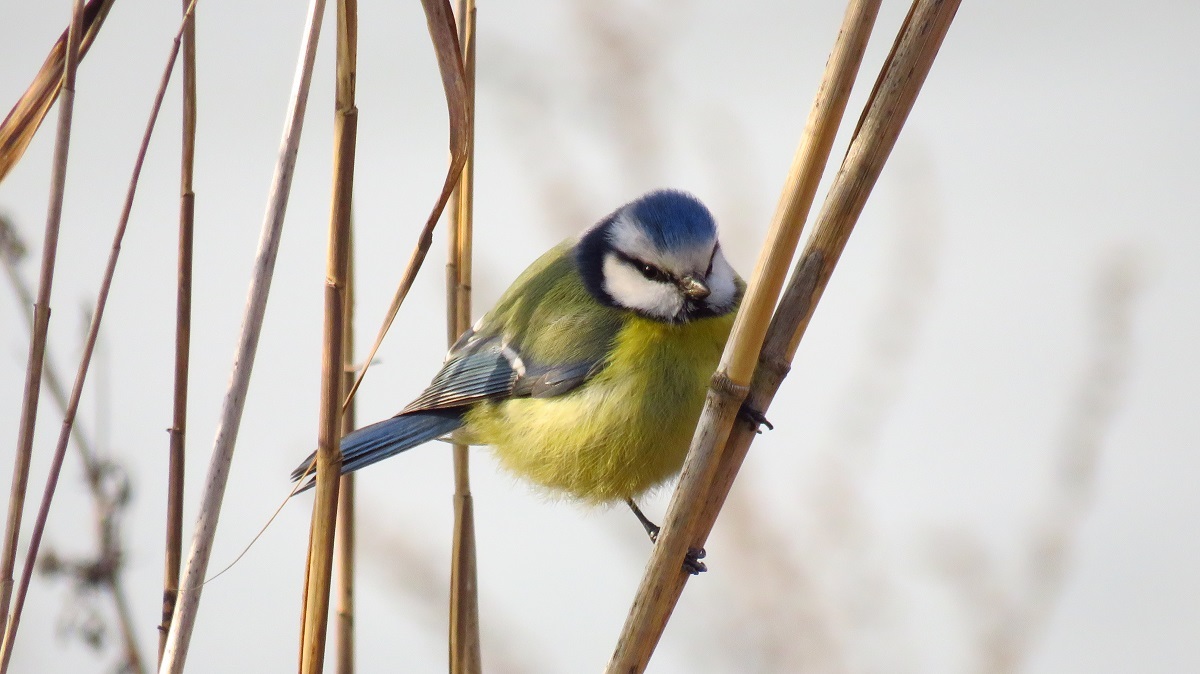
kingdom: Animalia
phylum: Chordata
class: Aves
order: Passeriformes
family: Paridae
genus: Cyanistes
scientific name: Cyanistes caeruleus
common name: Eurasian blue tit
